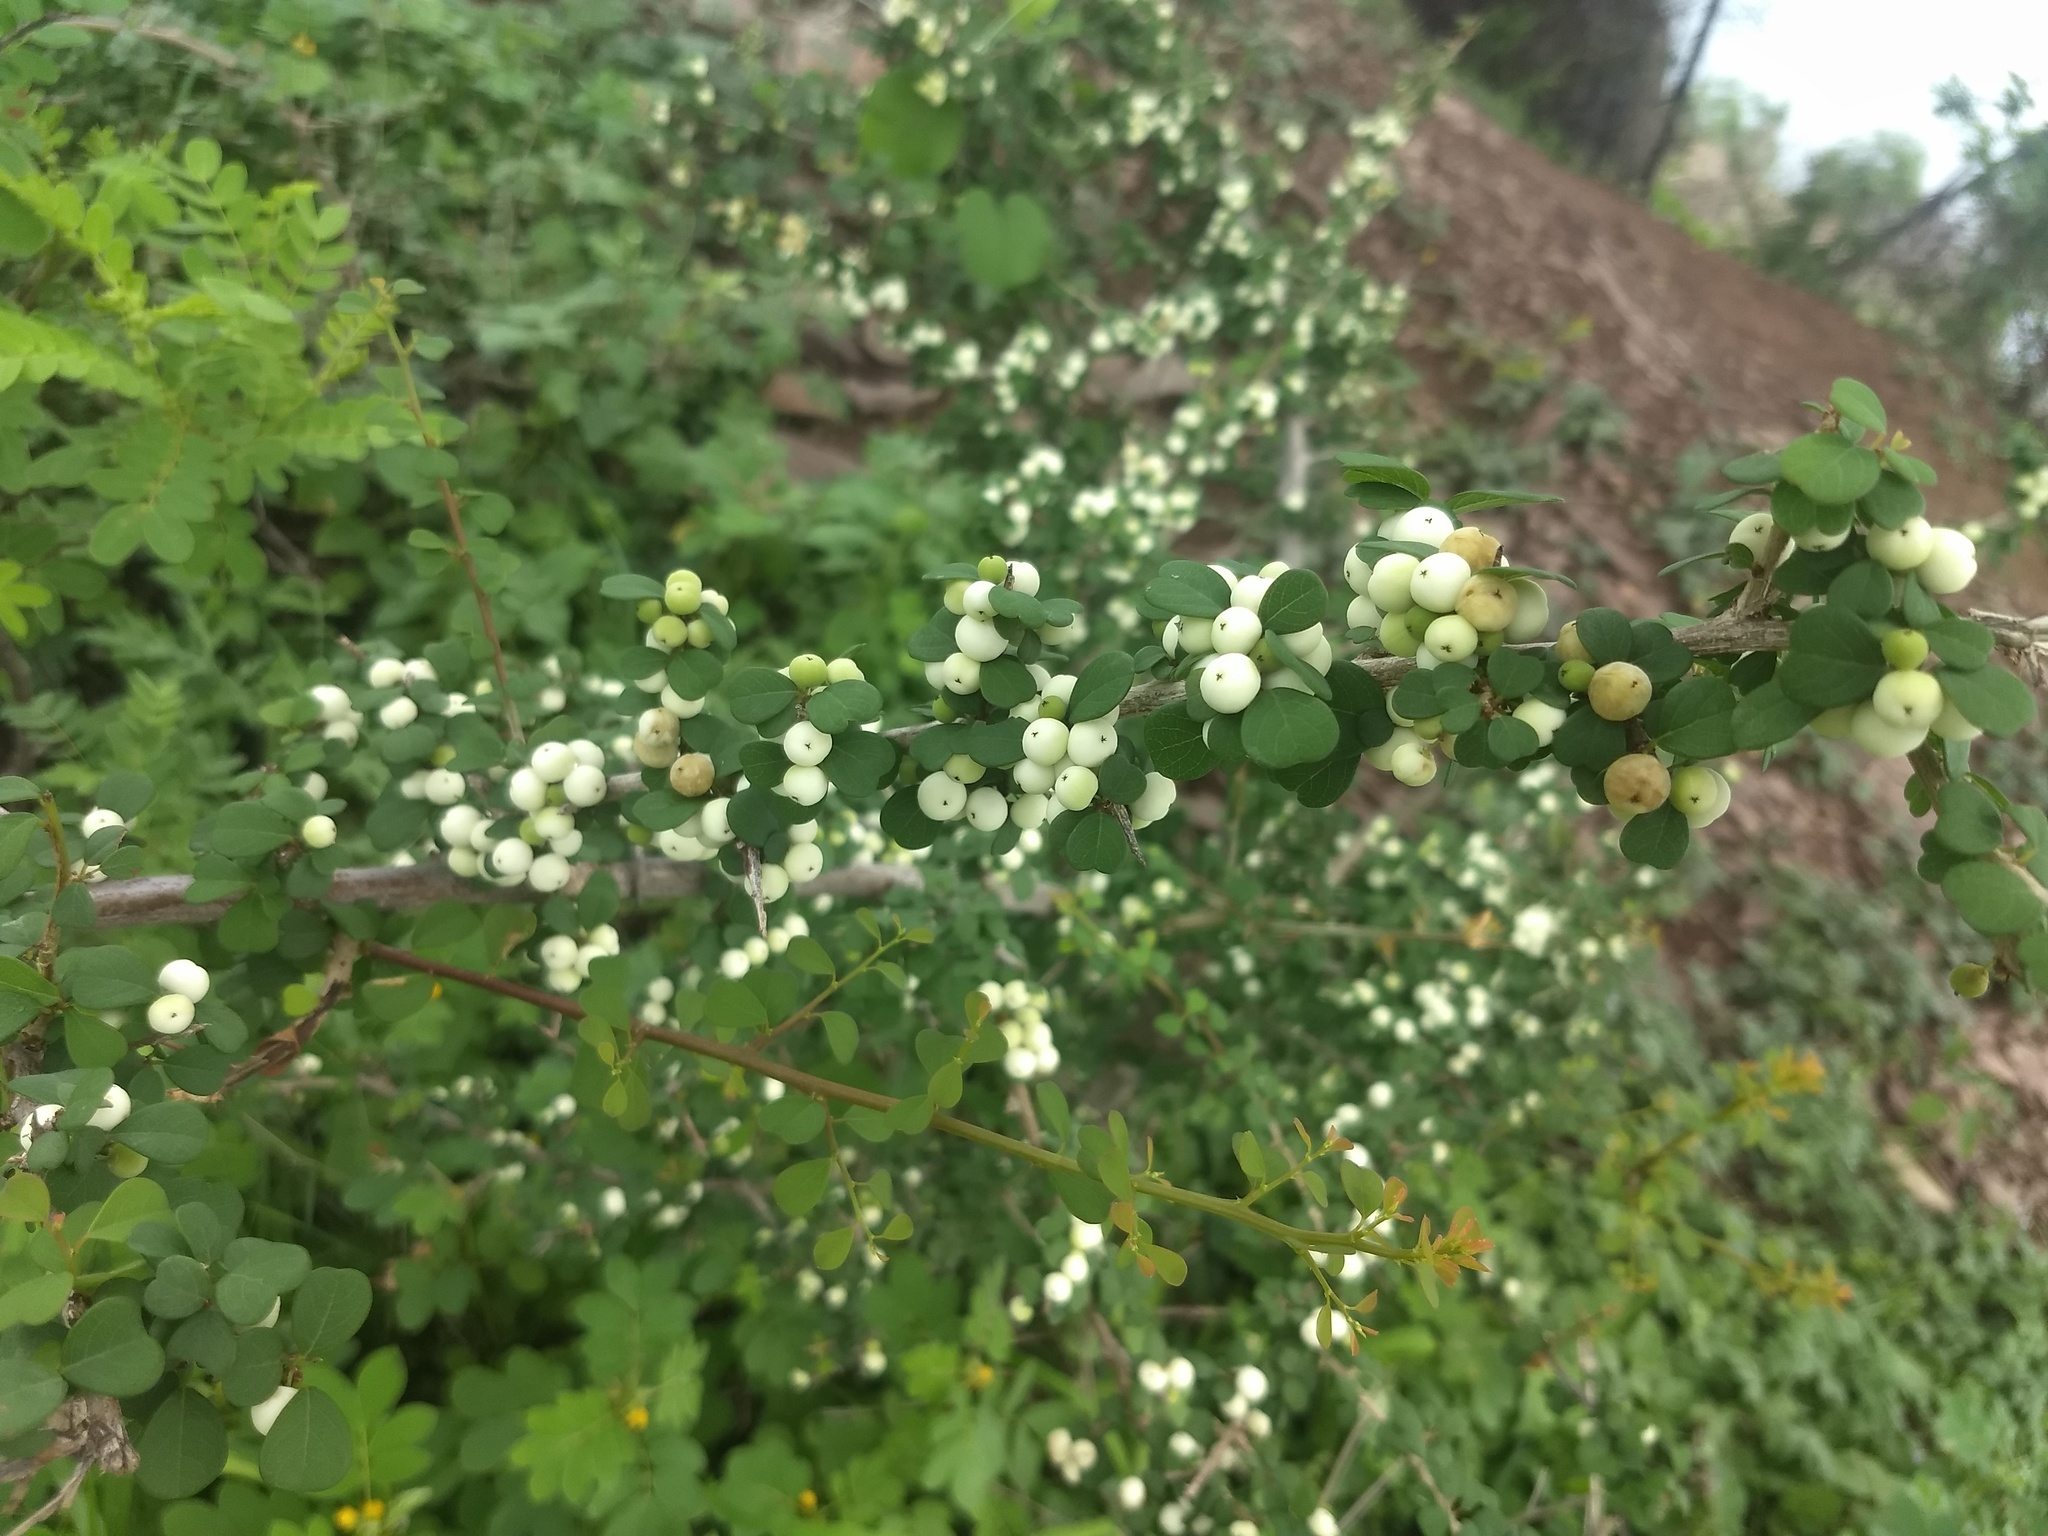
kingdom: Plantae
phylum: Tracheophyta
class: Magnoliopsida
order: Malpighiales
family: Phyllanthaceae
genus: Flueggea
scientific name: Flueggea leucopyrus
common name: Bushweed
